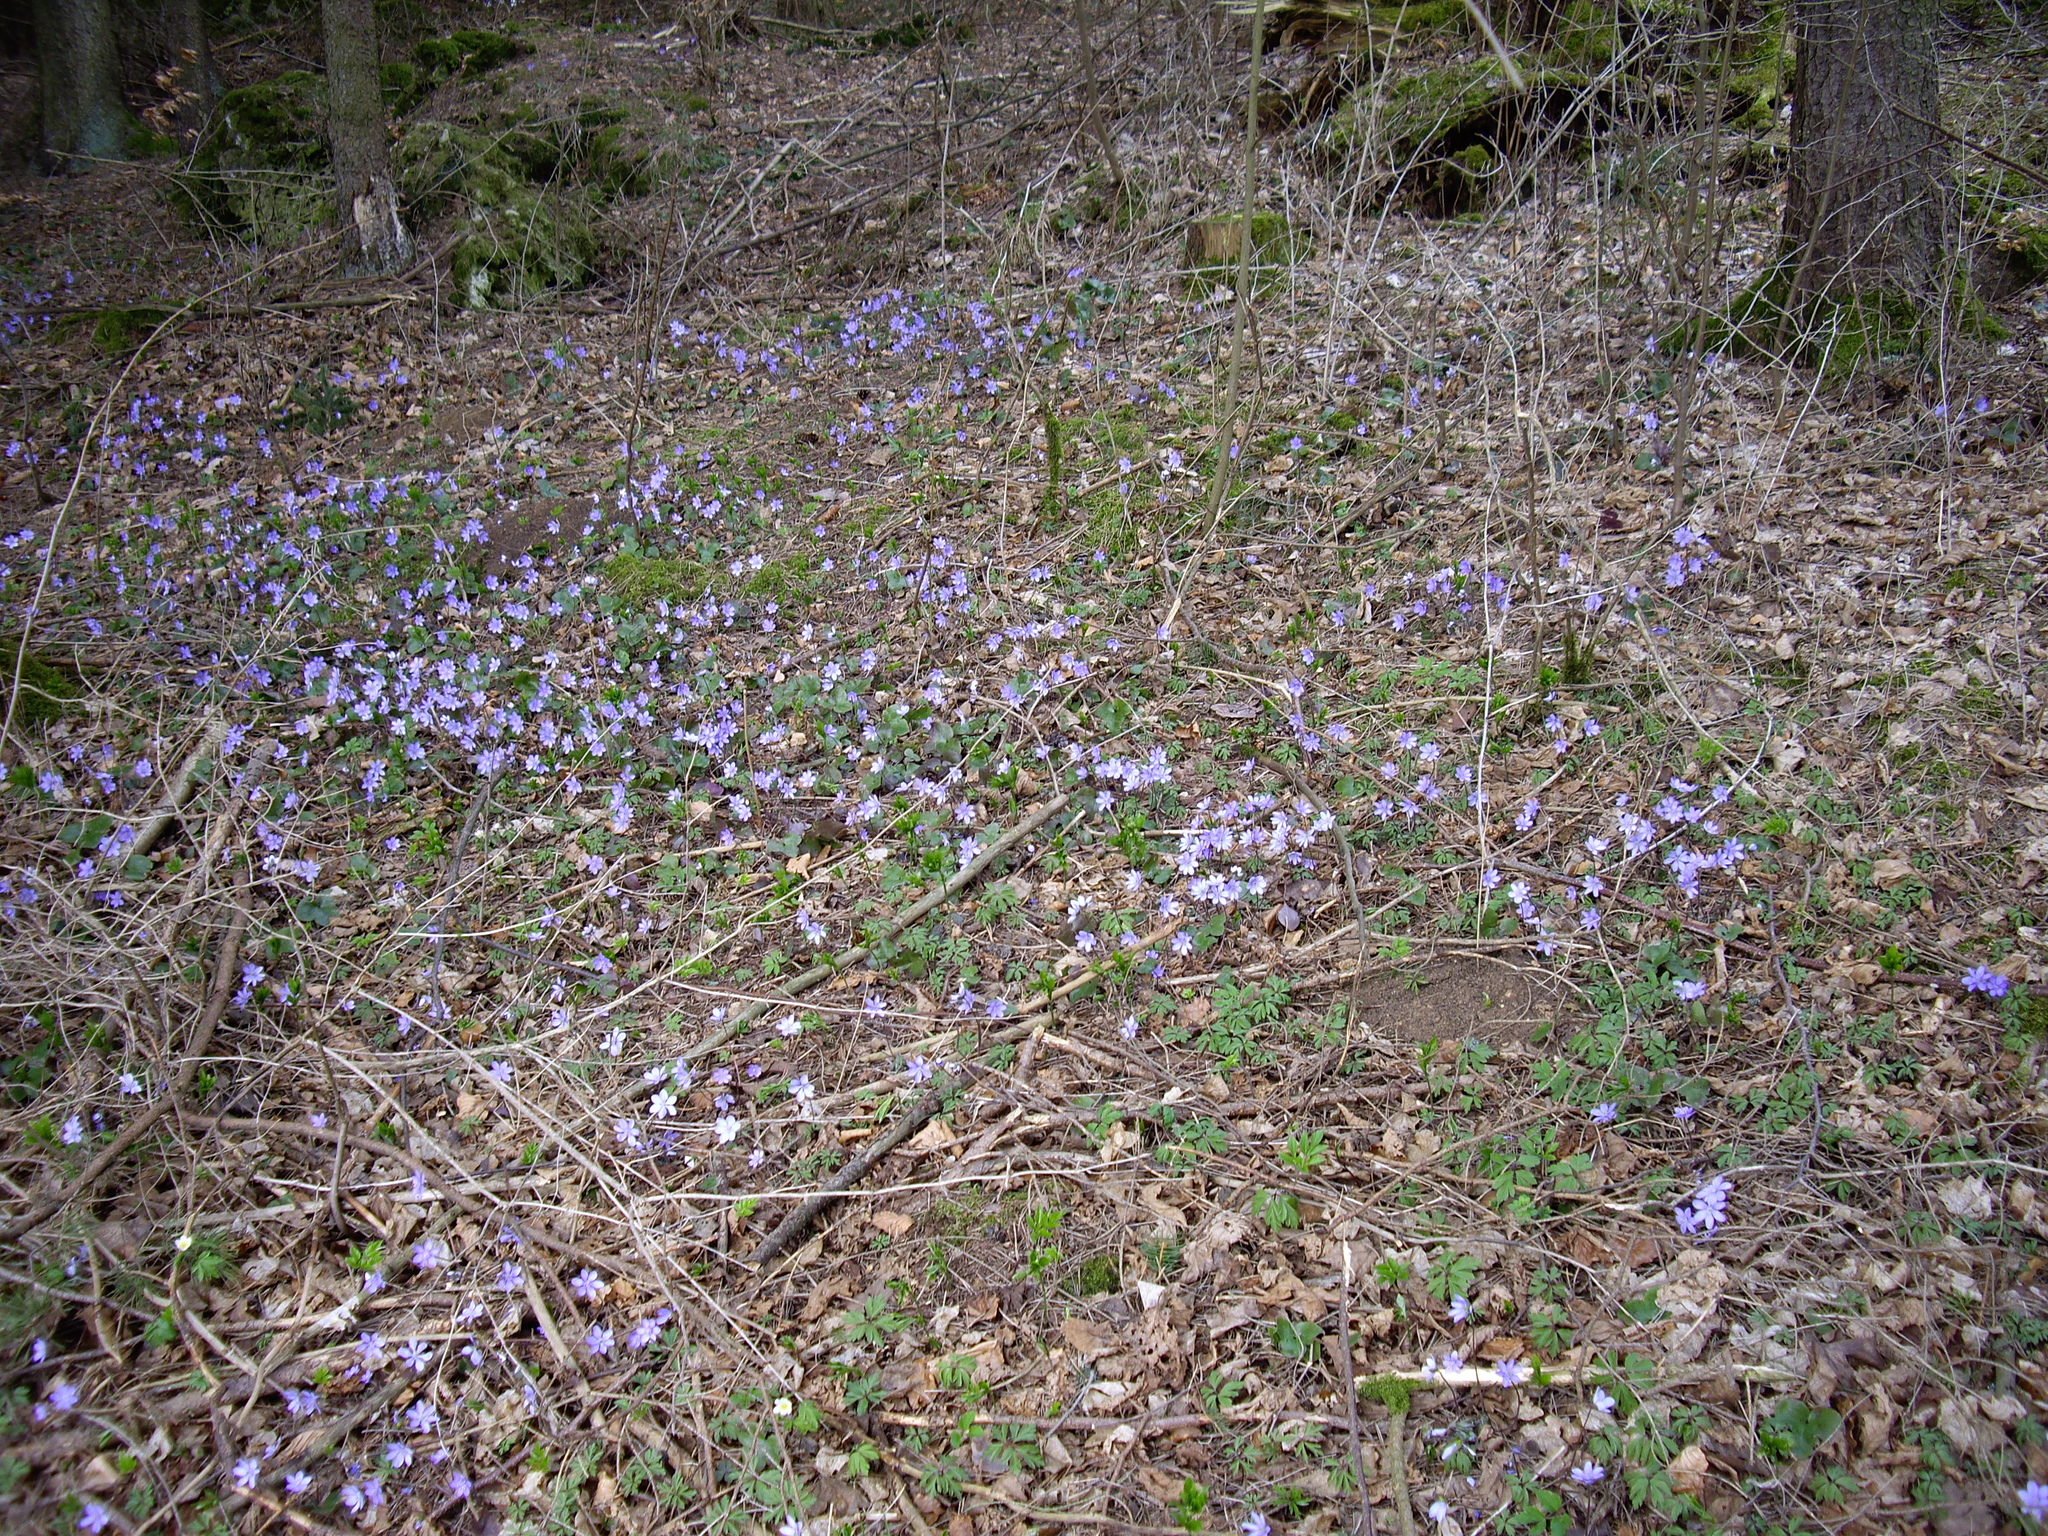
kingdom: Plantae
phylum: Tracheophyta
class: Magnoliopsida
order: Ranunculales
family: Ranunculaceae
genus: Hepatica
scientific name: Hepatica nobilis
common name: Liverleaf
